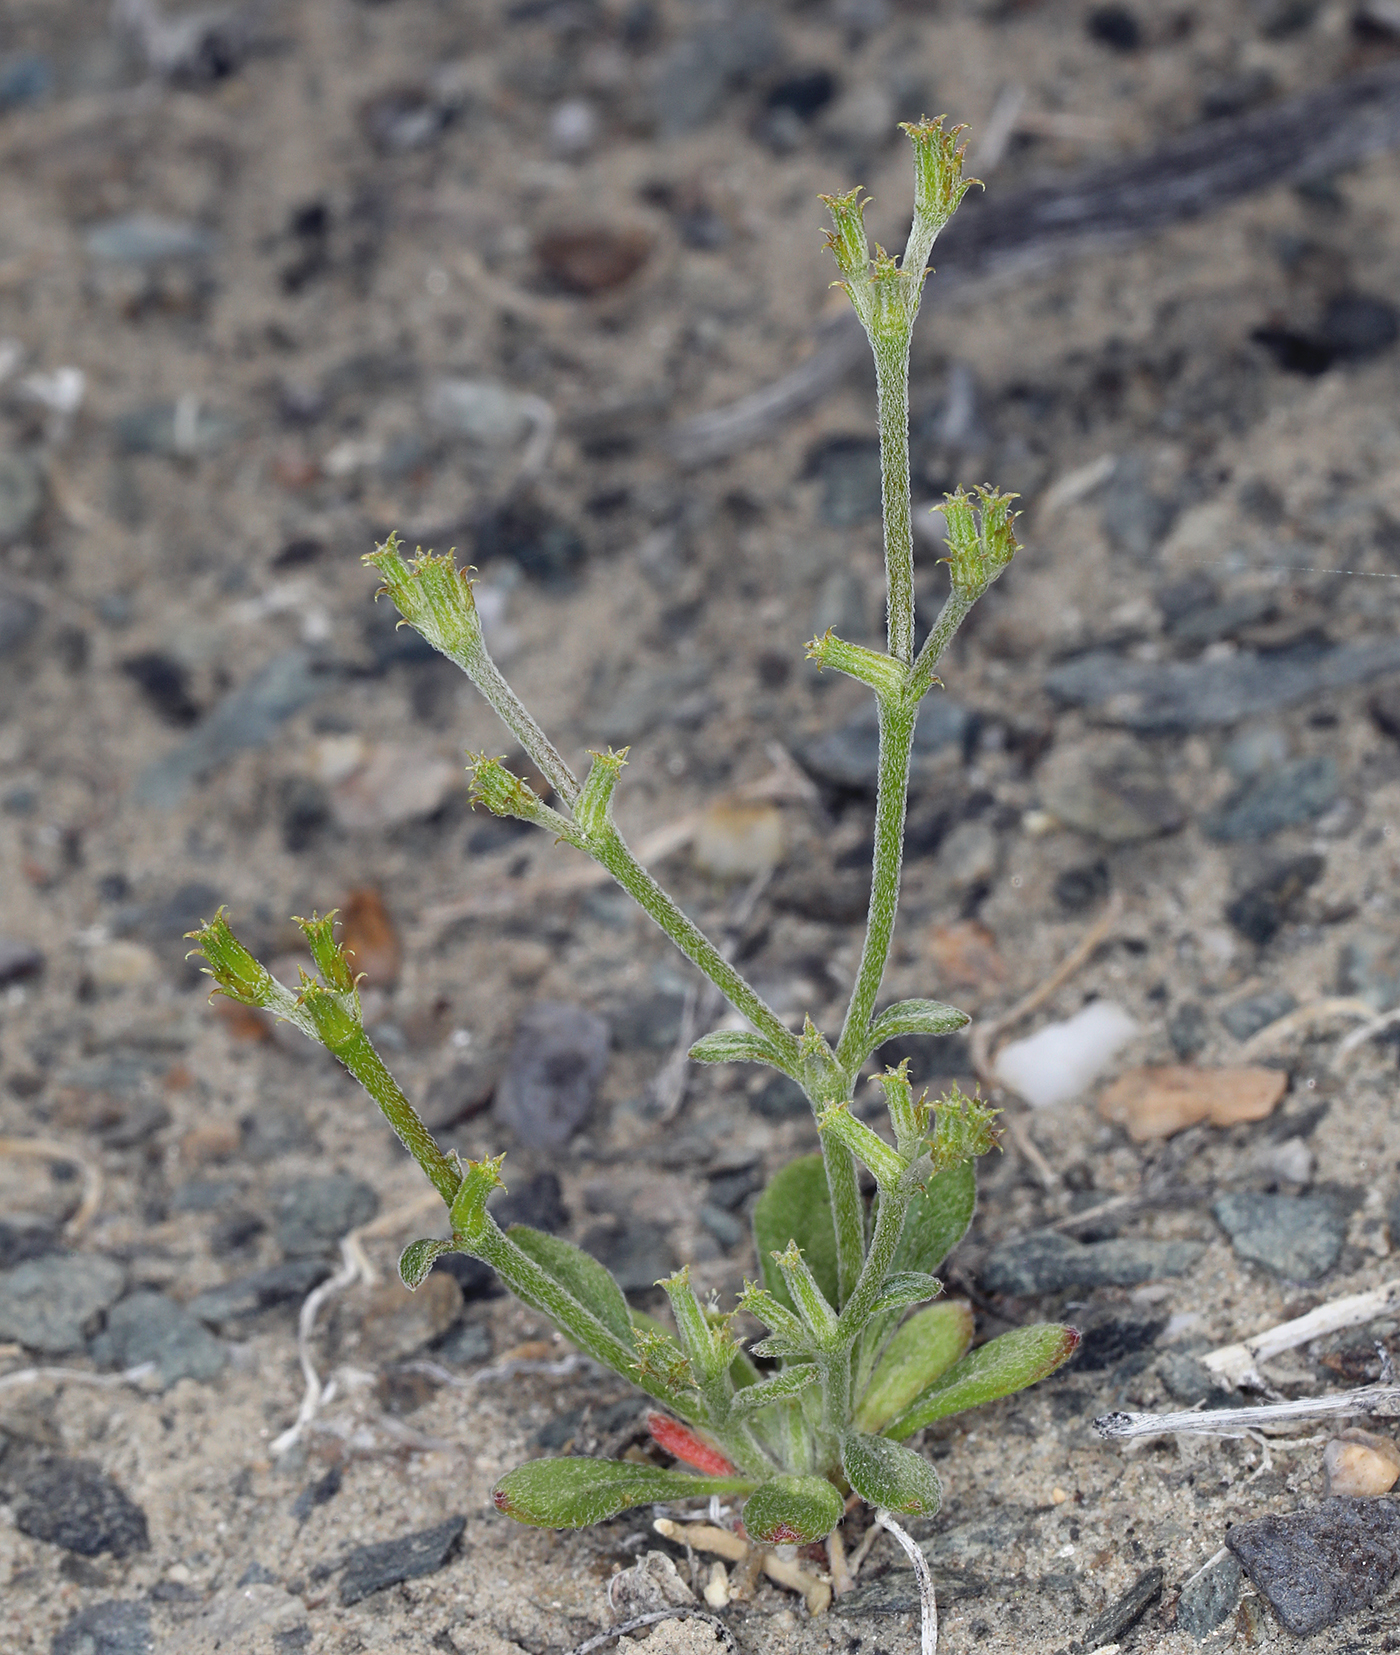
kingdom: Plantae
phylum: Tracheophyta
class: Magnoliopsida
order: Caryophyllales
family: Polygonaceae
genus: Chorizanthe
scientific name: Chorizanthe brevicornu
